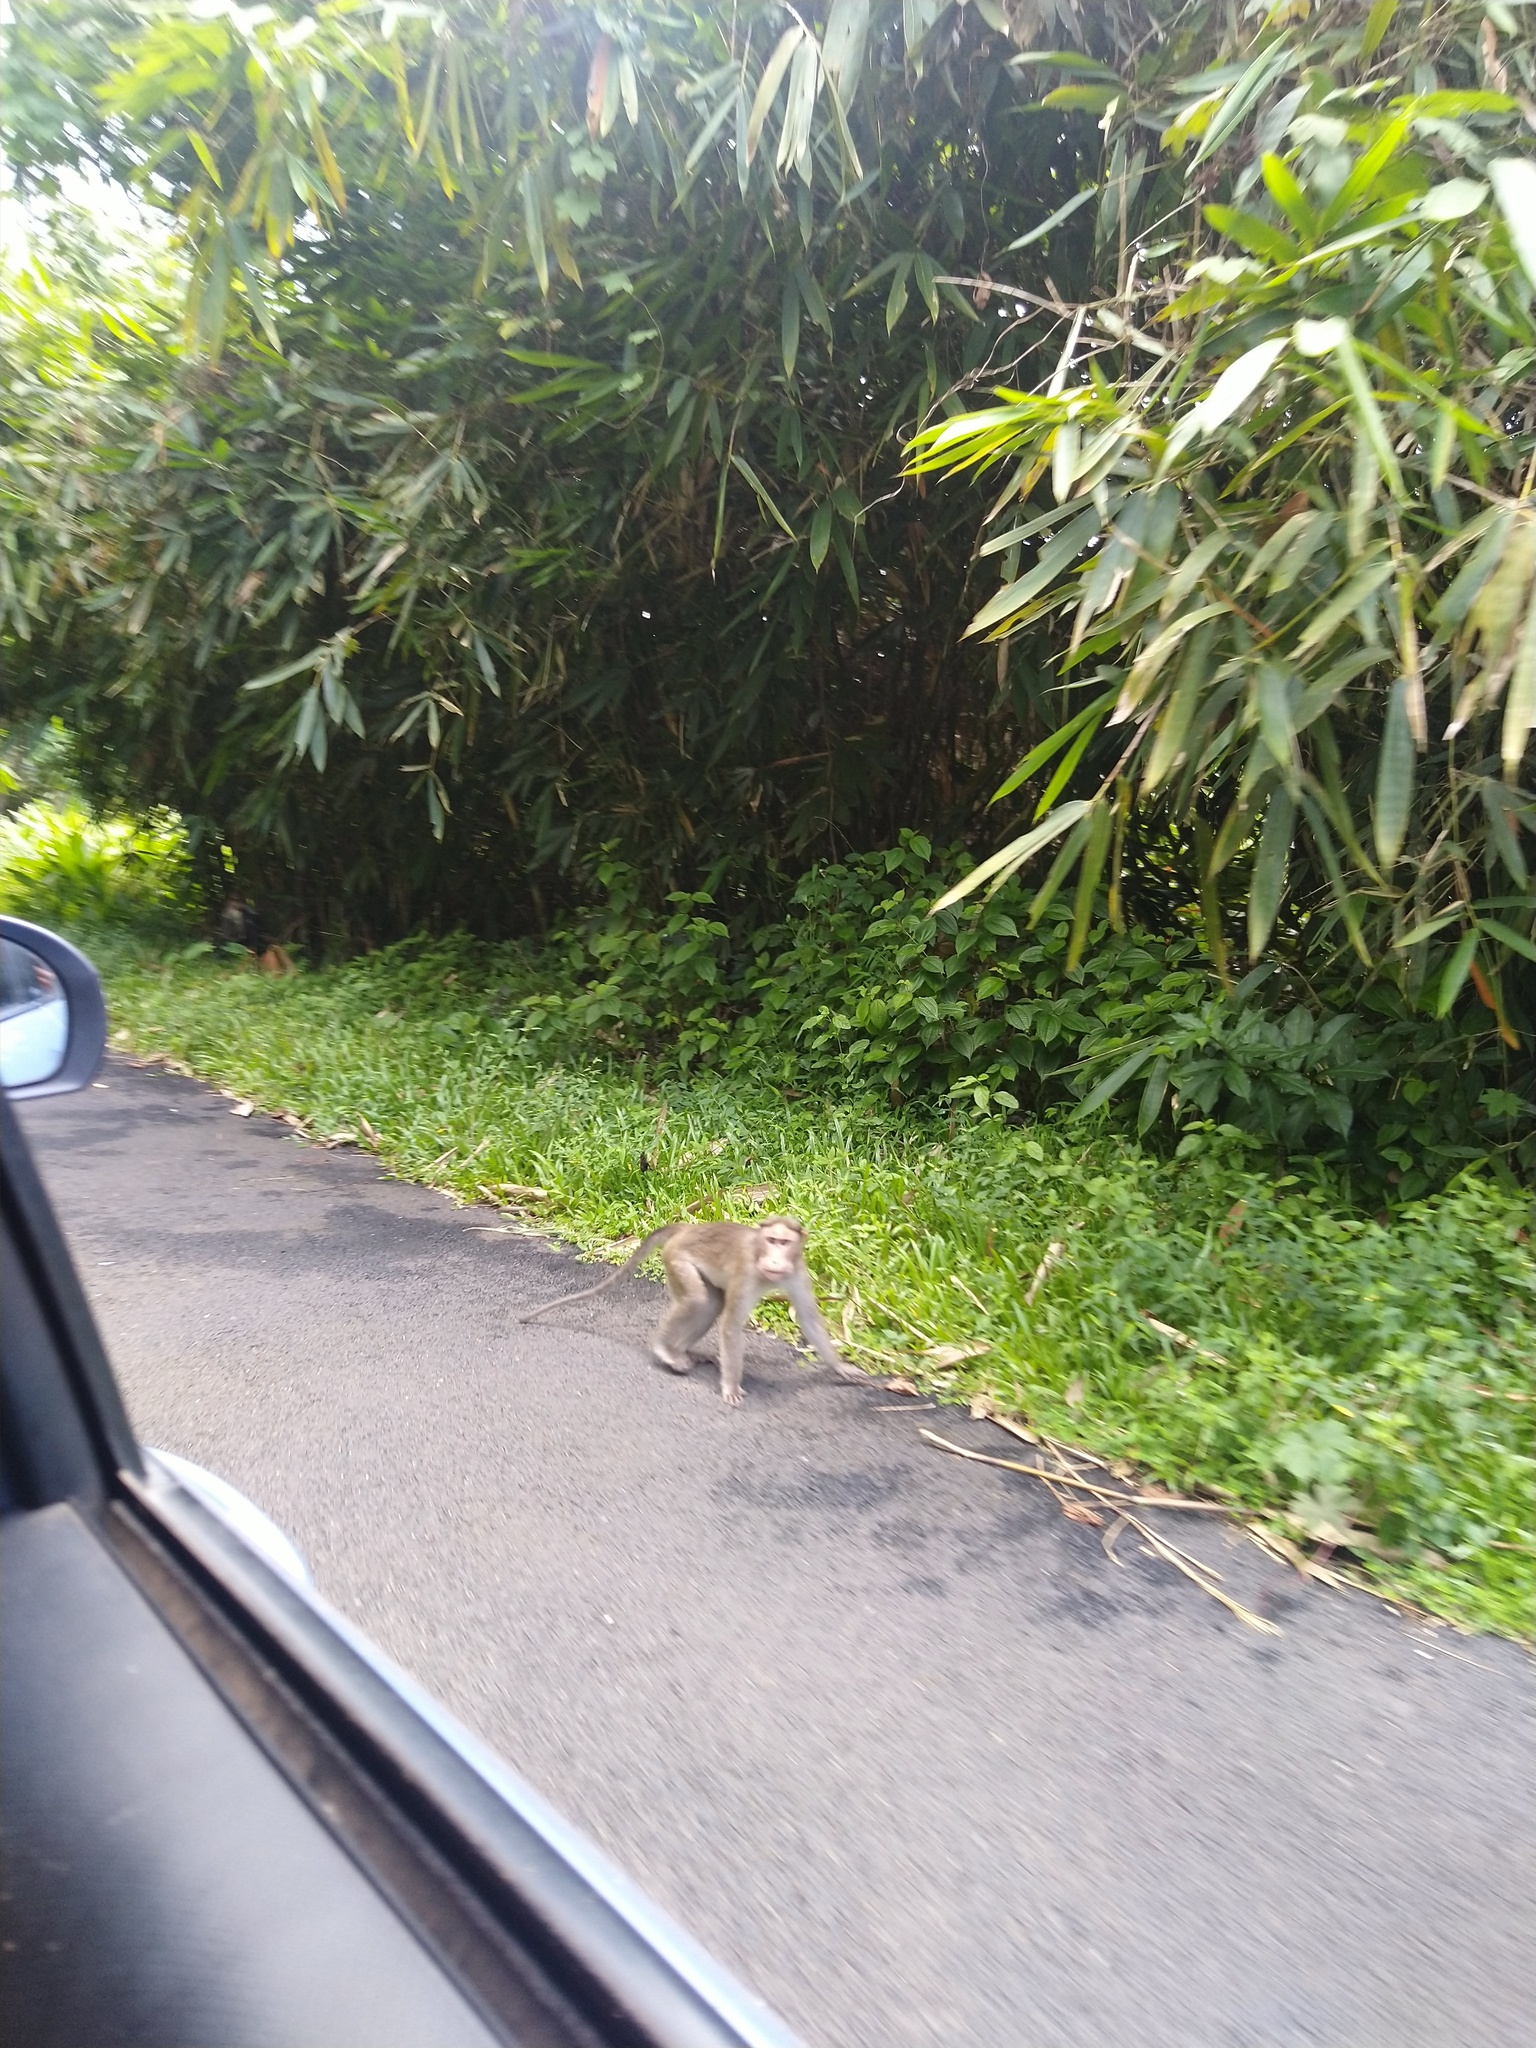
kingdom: Animalia
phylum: Chordata
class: Mammalia
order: Primates
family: Cercopithecidae
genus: Macaca
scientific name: Macaca radiata
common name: Bonnet macaque
